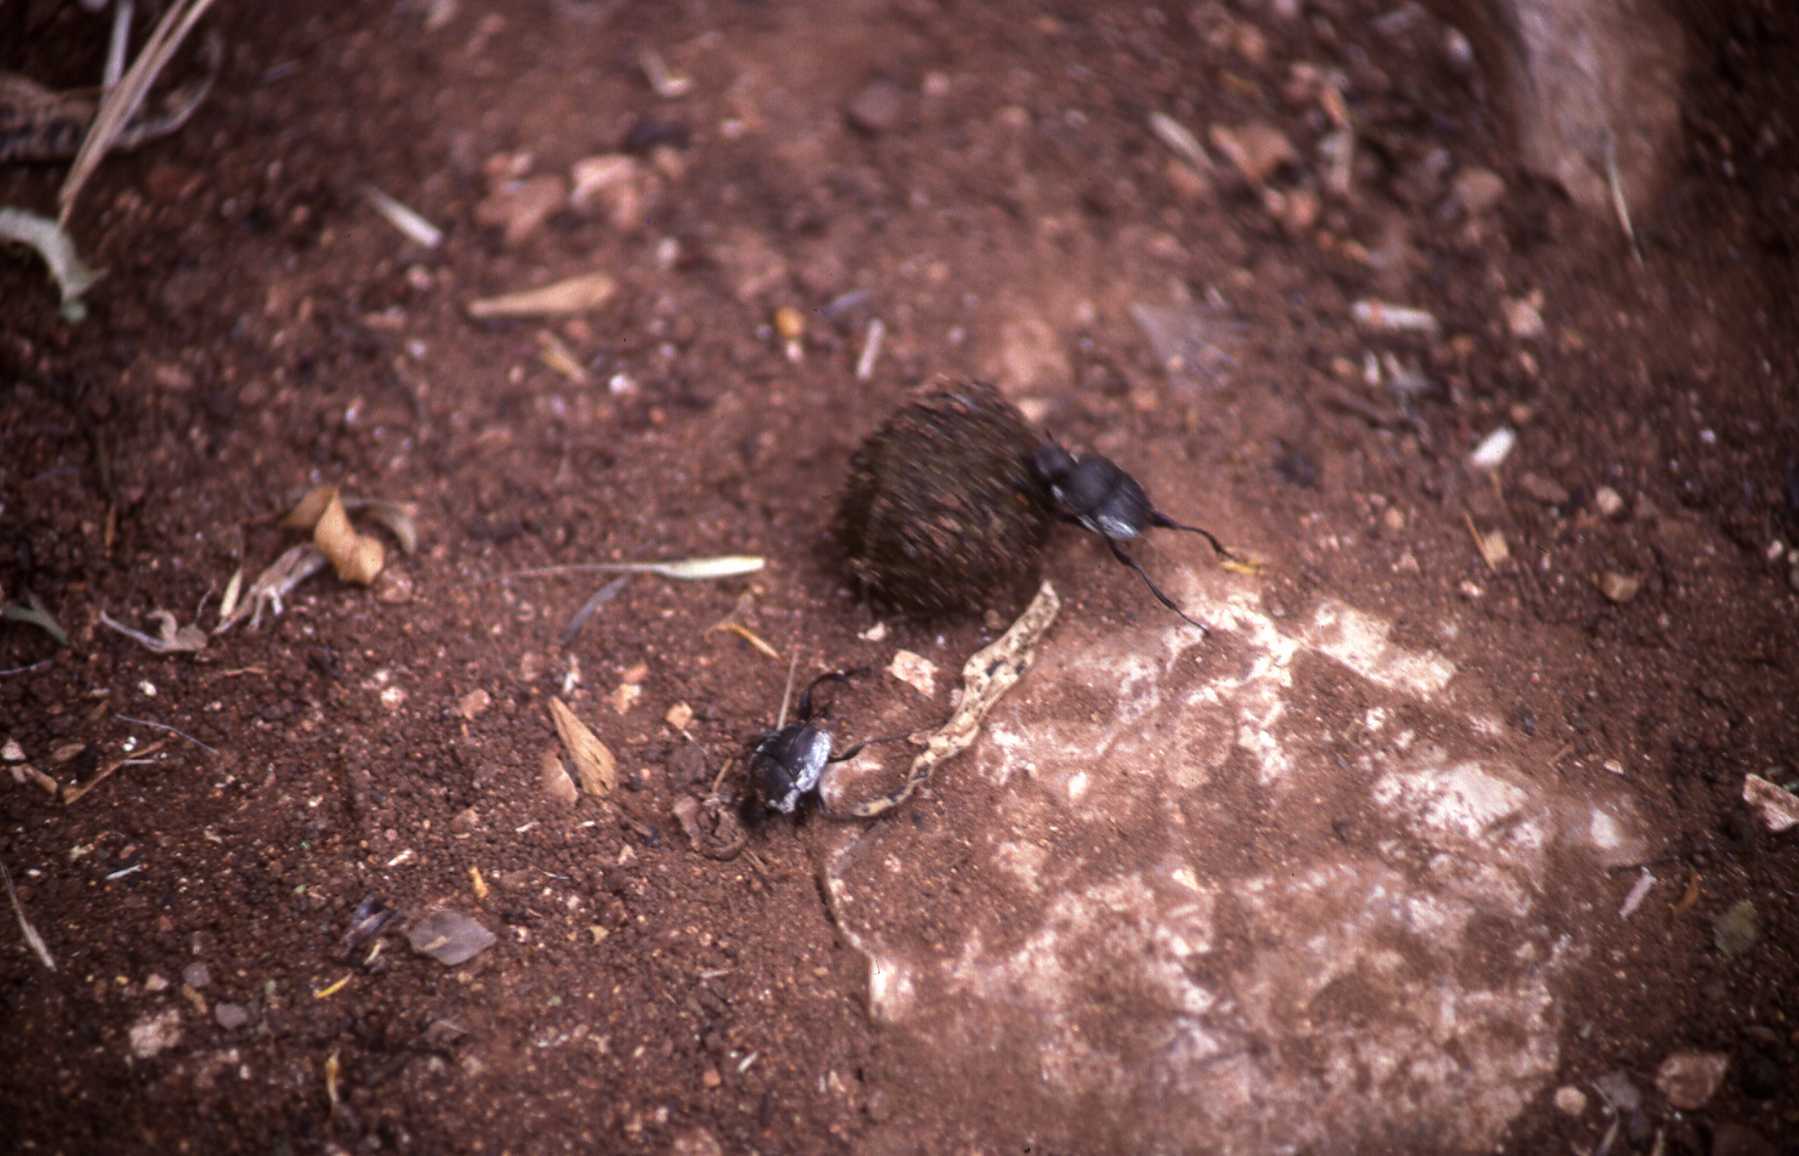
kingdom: Animalia
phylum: Arthropoda
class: Insecta
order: Coleoptera
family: Scarabaeidae
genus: Sisyphus
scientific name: Sisyphus schaefferi
